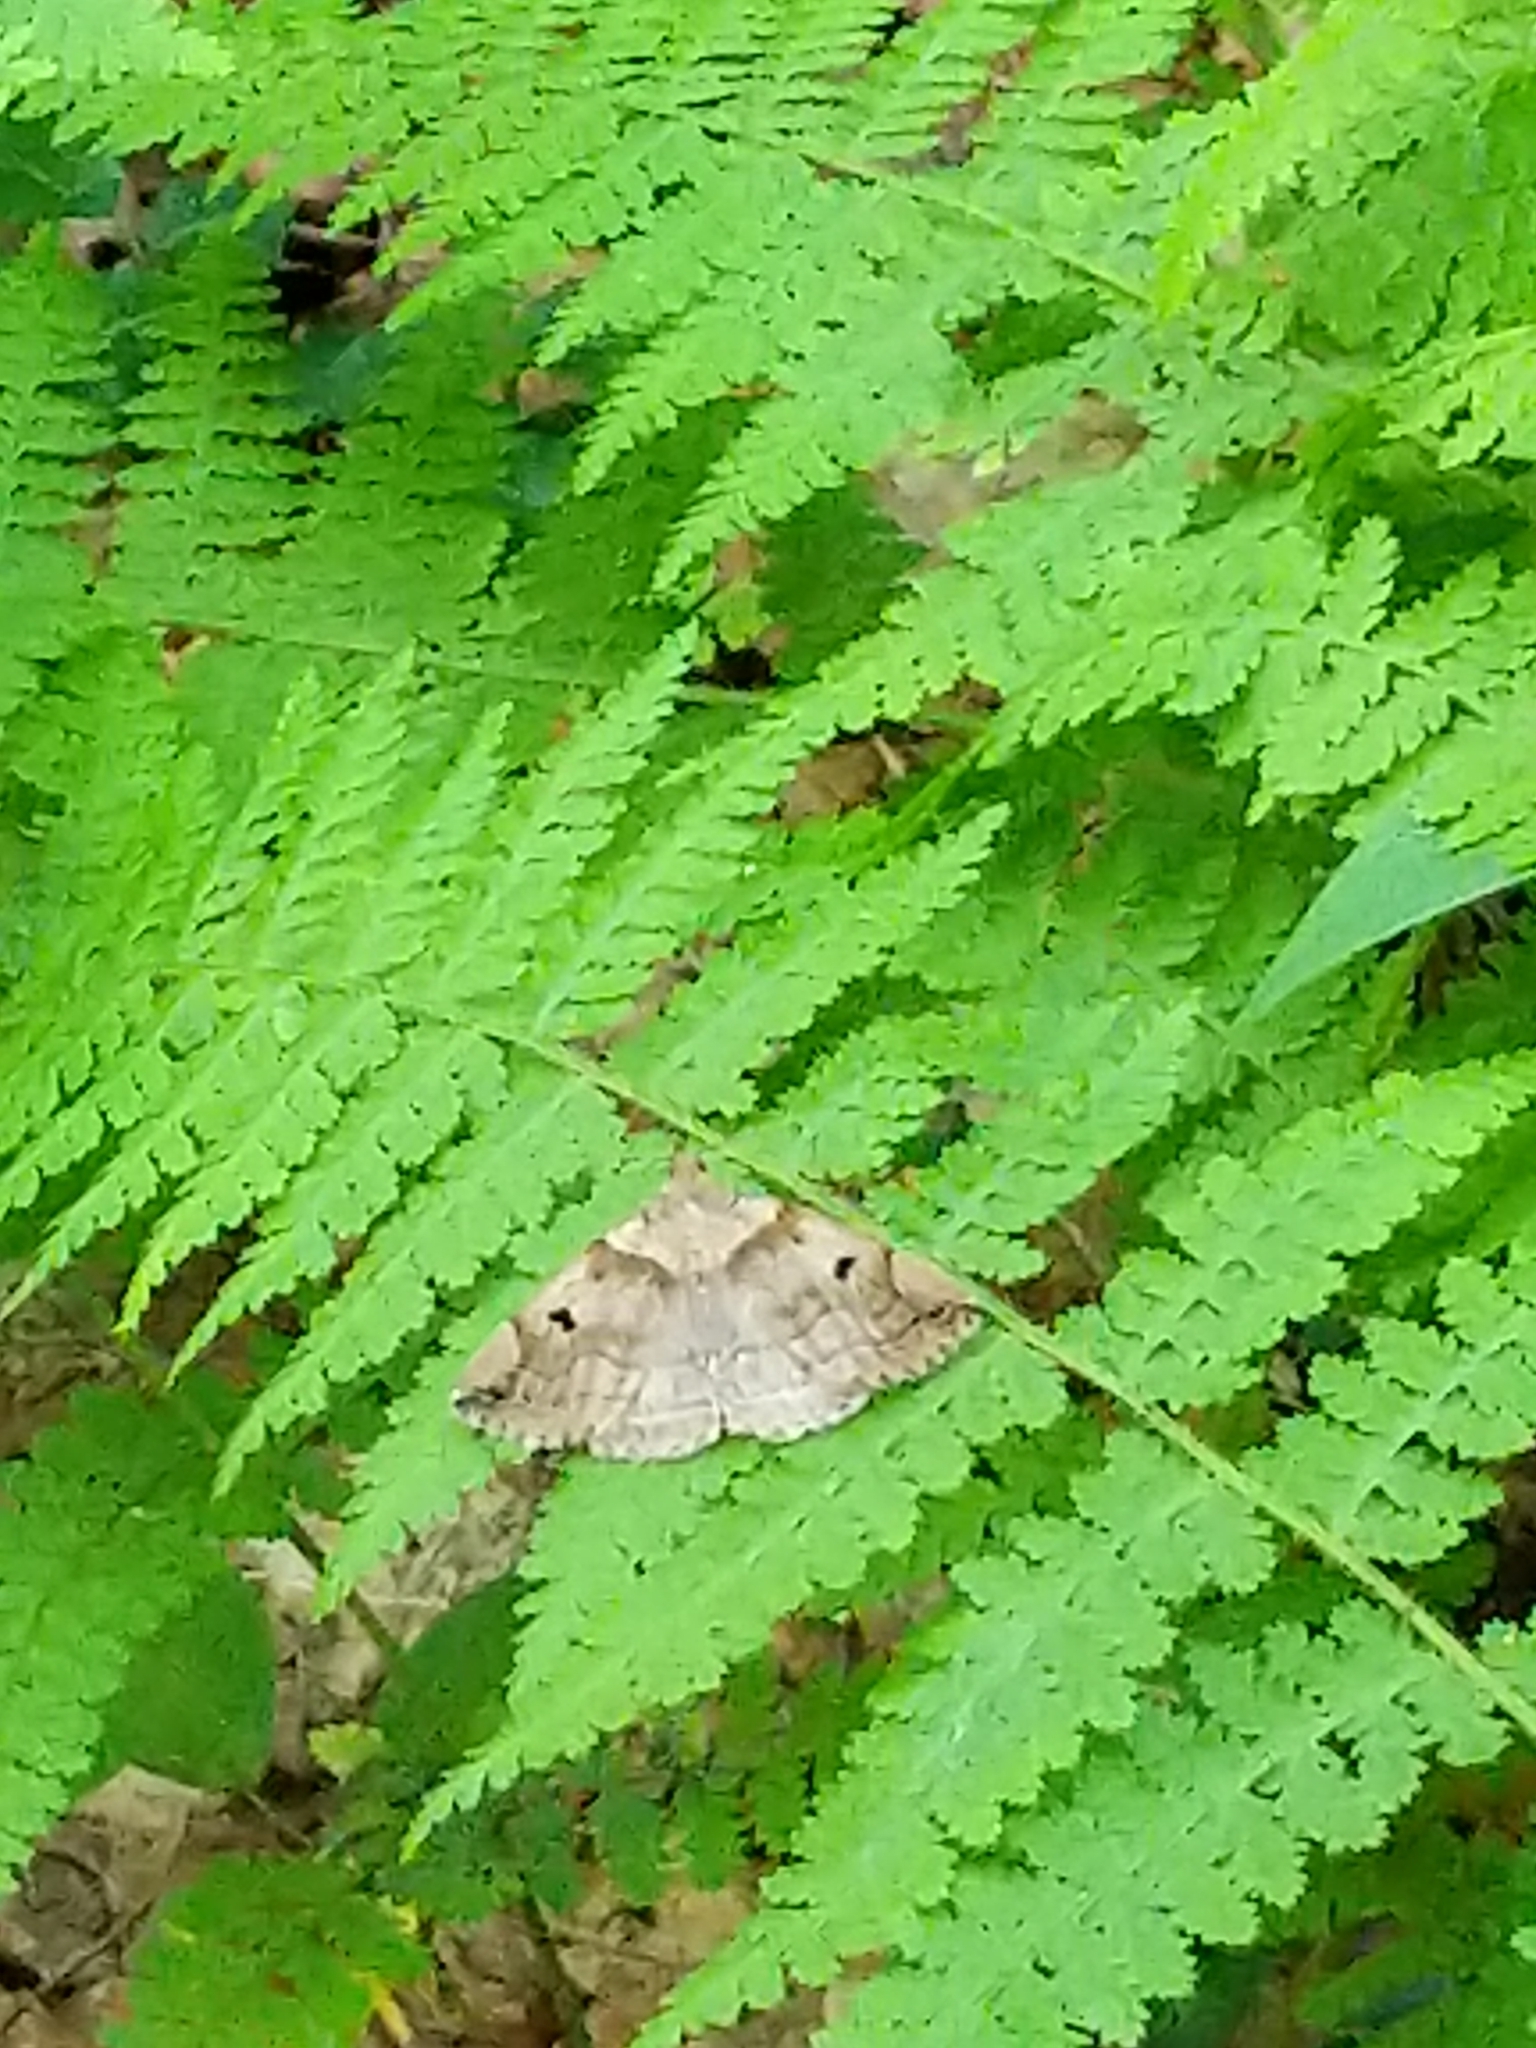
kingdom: Animalia
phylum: Arthropoda
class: Insecta
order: Lepidoptera
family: Erebidae
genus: Zanclognatha
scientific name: Zanclognatha laevigata
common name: Variable fan-foot
